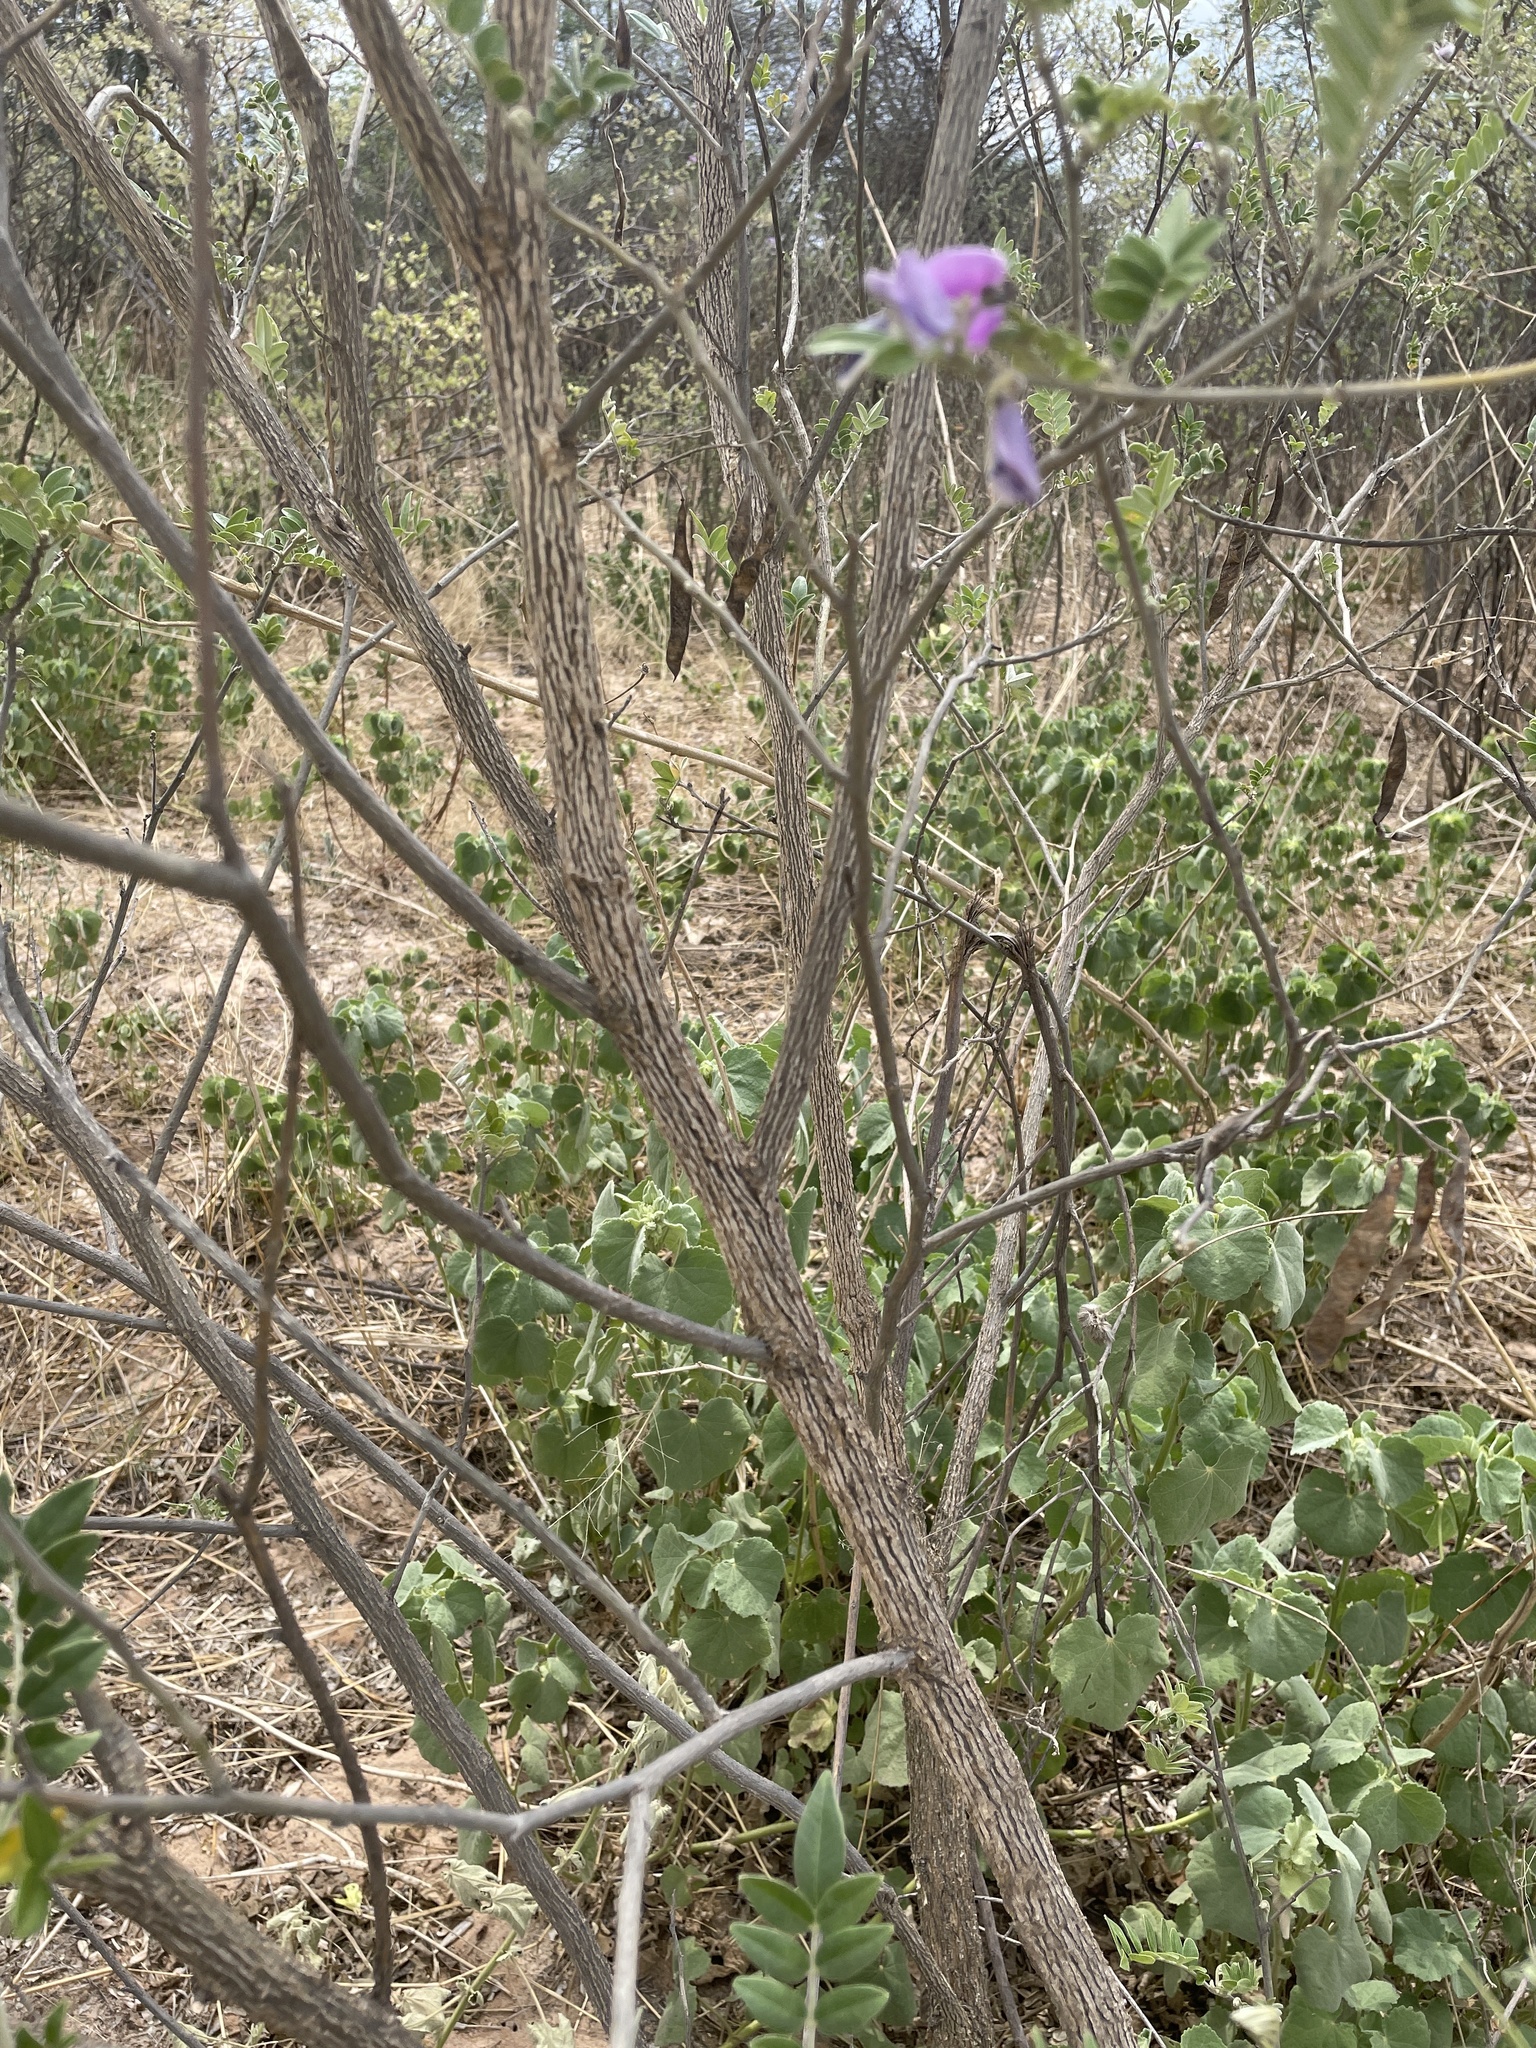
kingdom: Plantae
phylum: Tracheophyta
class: Magnoliopsida
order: Fabales
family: Fabaceae
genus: Mundulea
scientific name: Mundulea sericea
